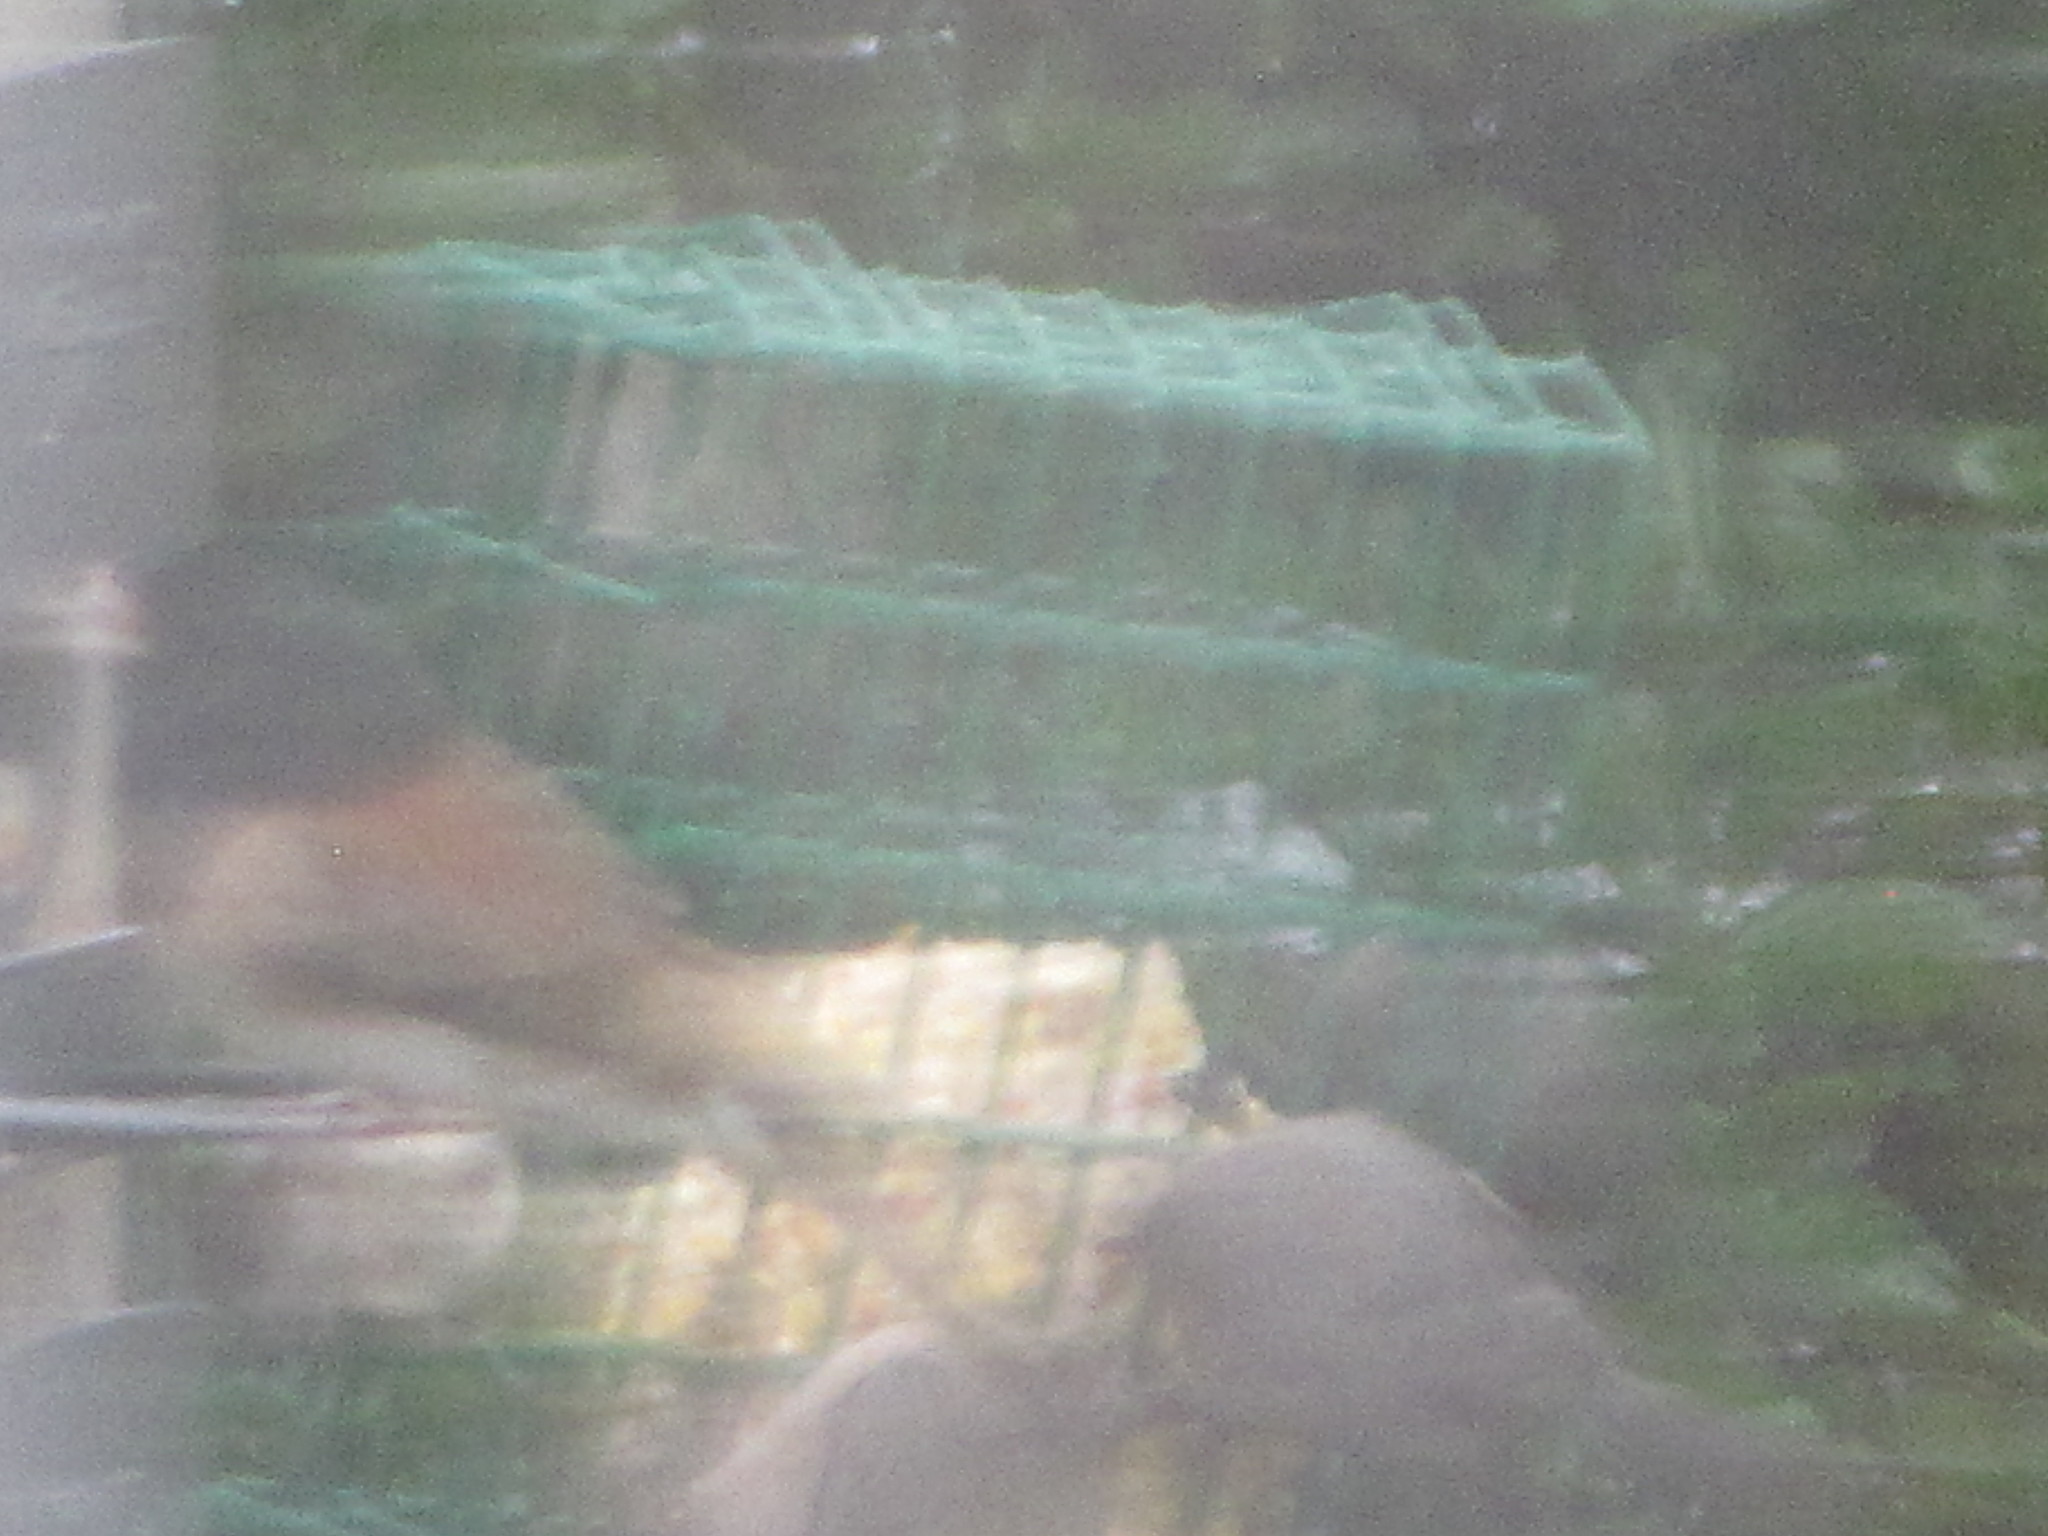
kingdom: Animalia
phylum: Chordata
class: Aves
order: Passeriformes
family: Aegithalidae
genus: Psaltriparus
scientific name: Psaltriparus minimus
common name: American bushtit
